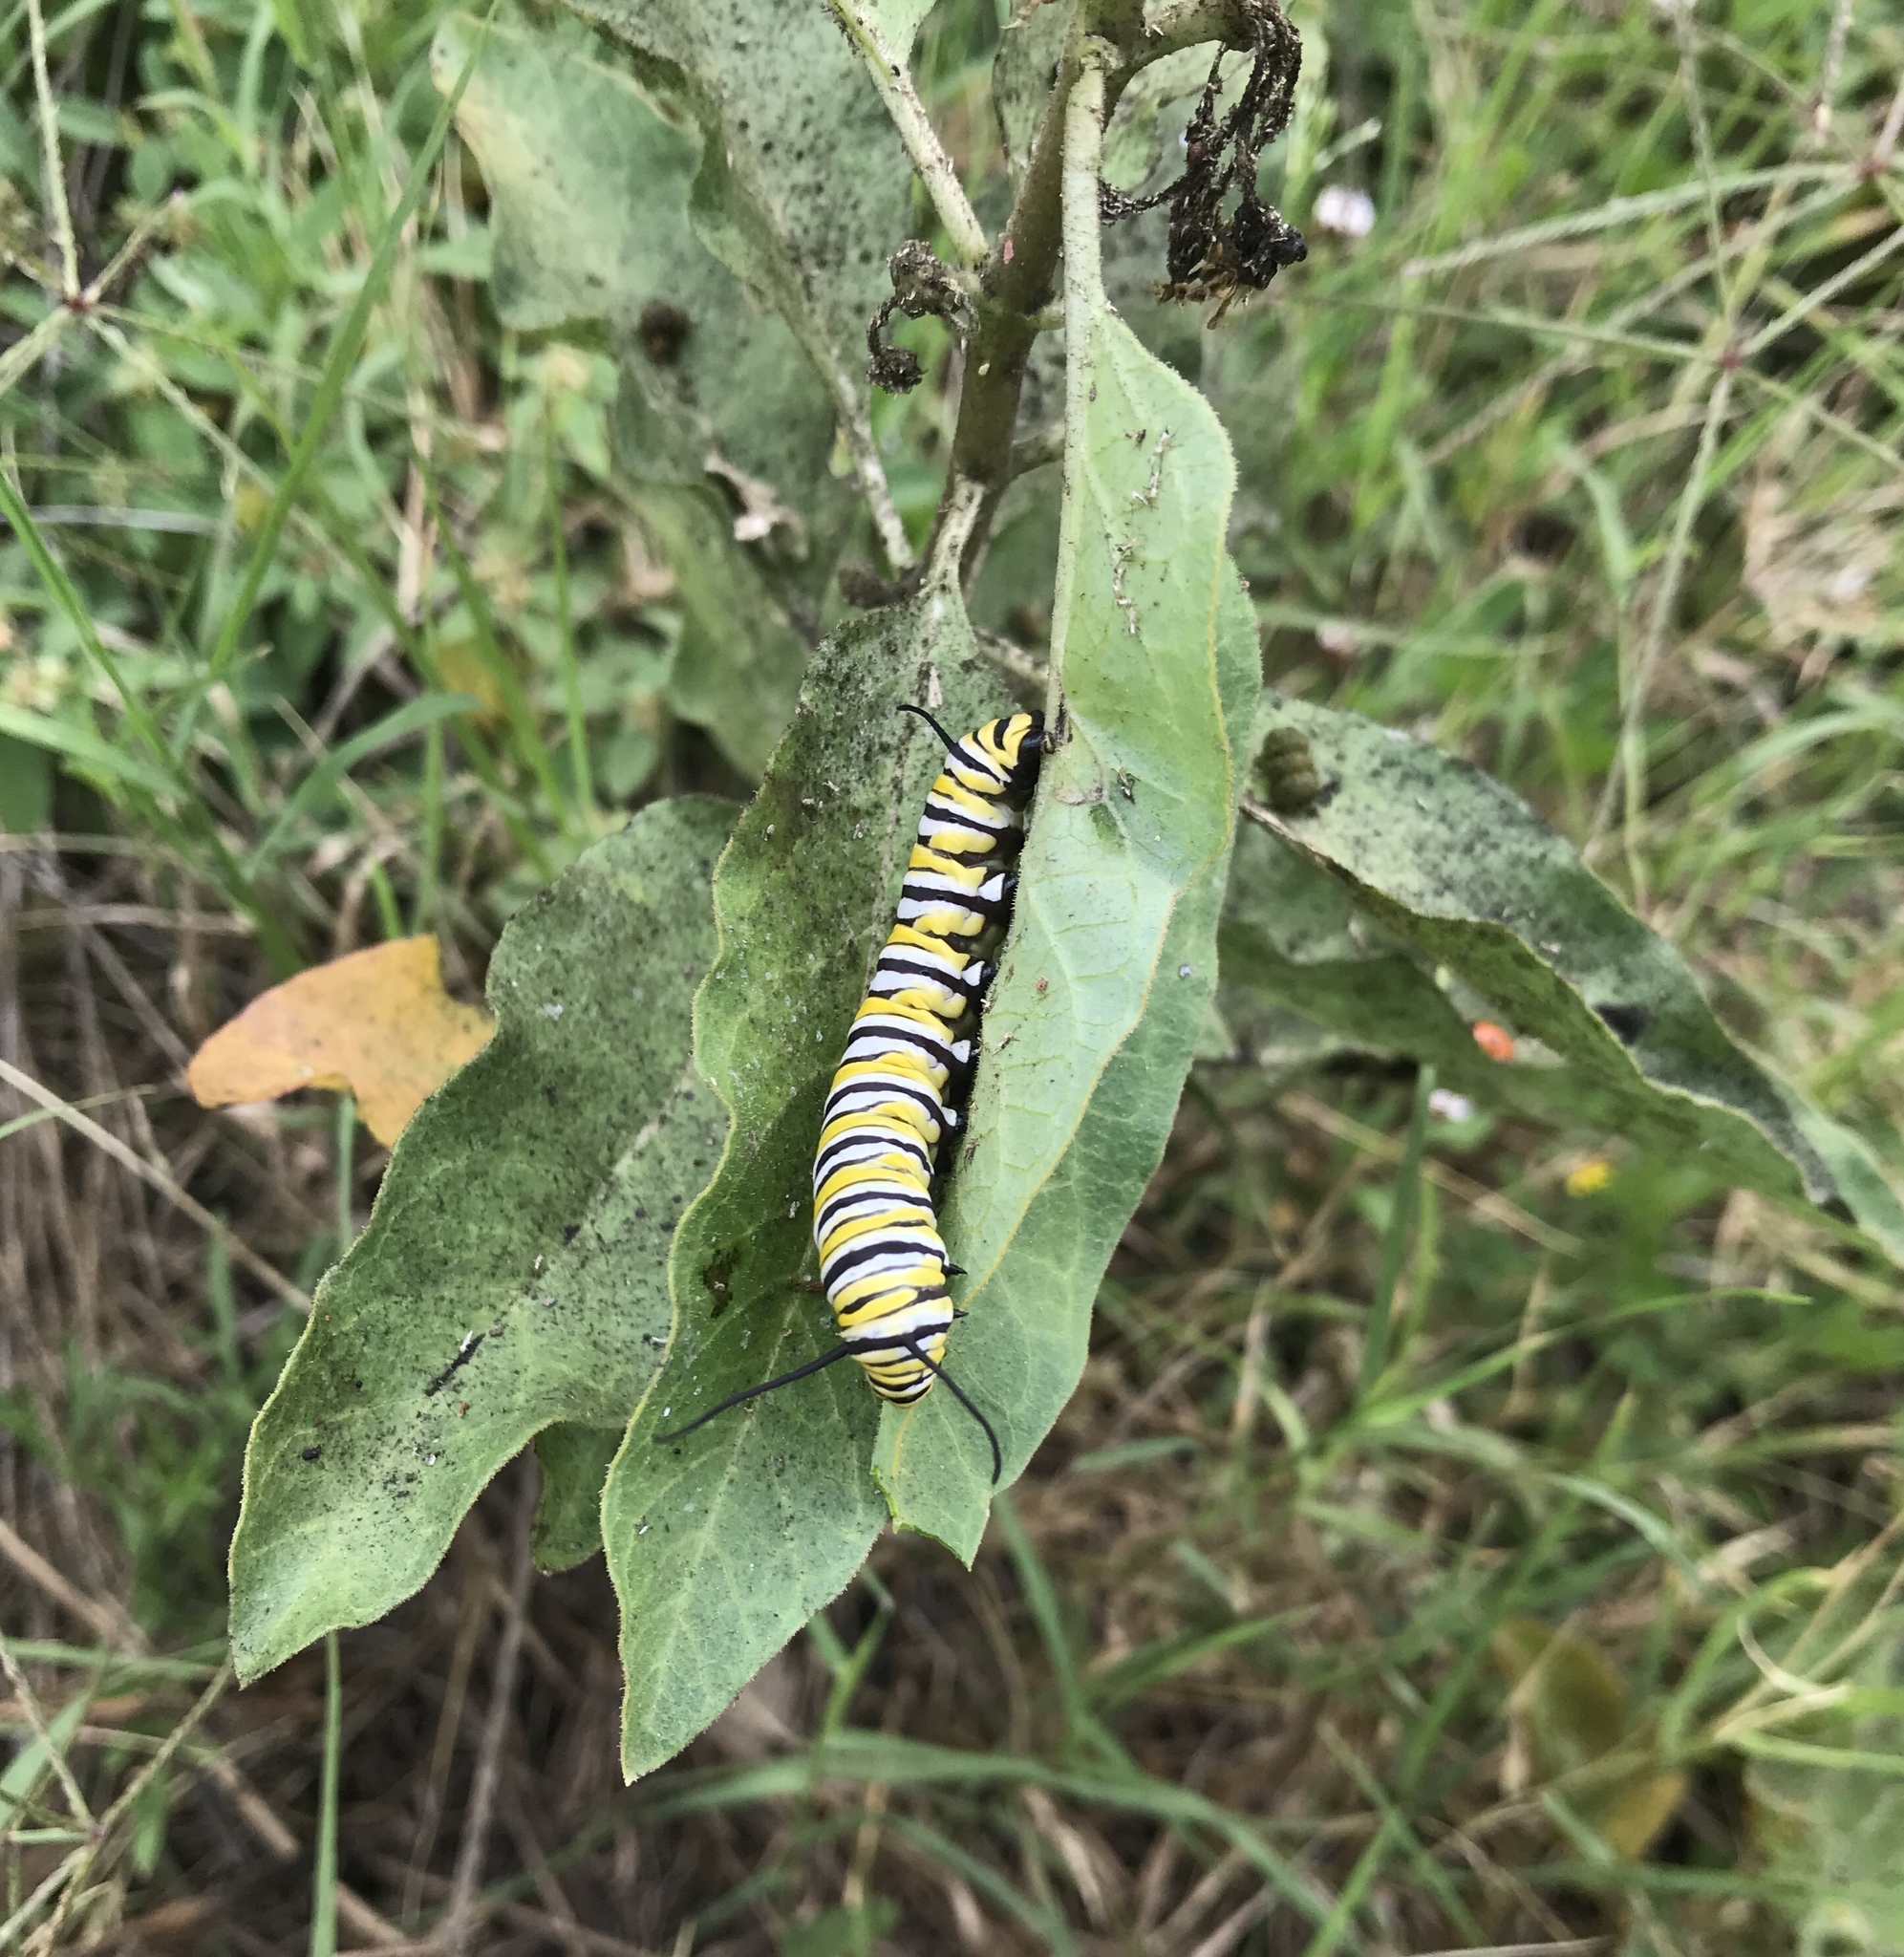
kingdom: Animalia
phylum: Arthropoda
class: Insecta
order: Lepidoptera
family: Nymphalidae
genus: Danaus
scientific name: Danaus plexippus
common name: Monarch
